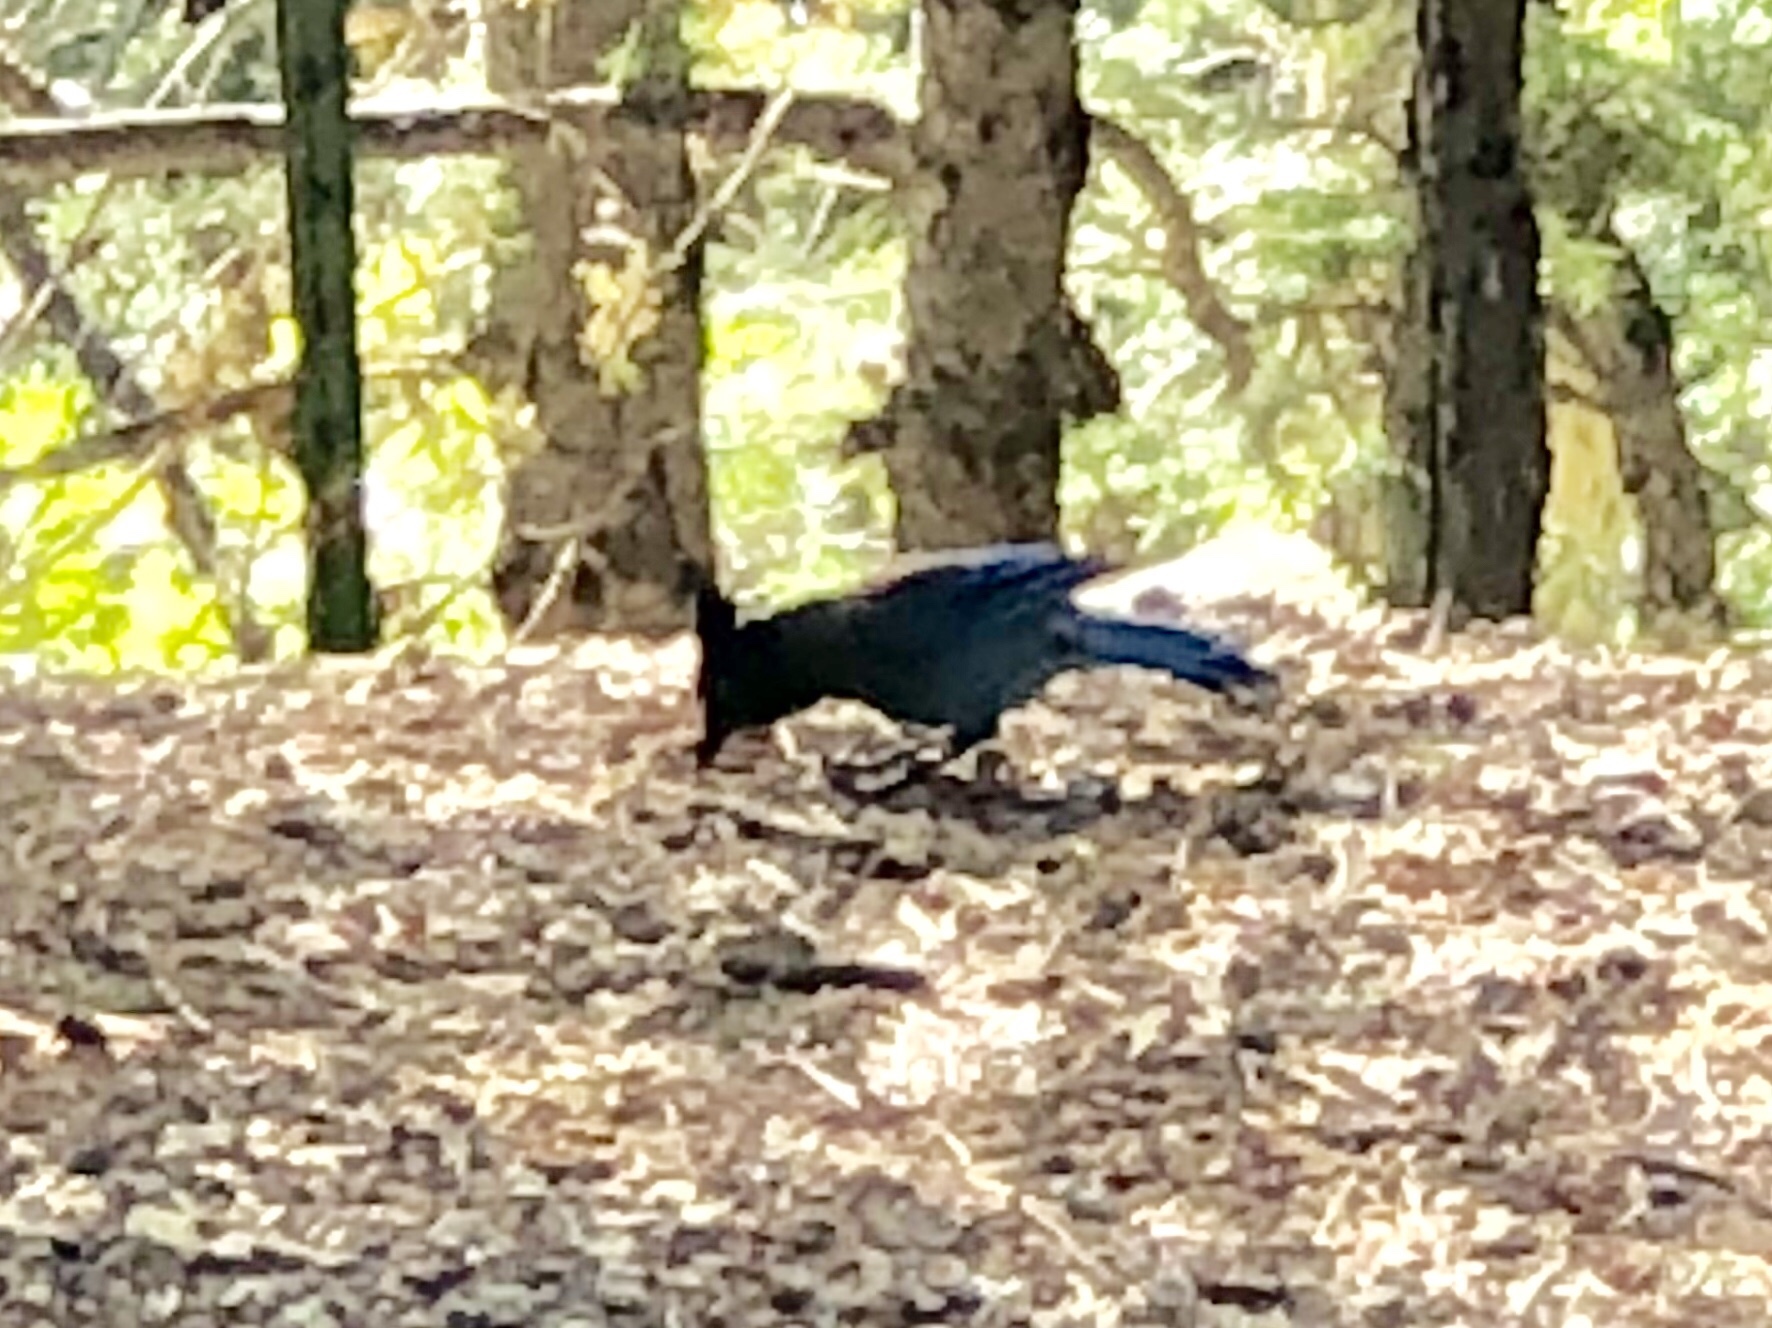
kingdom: Animalia
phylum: Chordata
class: Aves
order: Passeriformes
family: Corvidae
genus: Cyanocitta
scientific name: Cyanocitta stelleri
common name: Steller's jay
